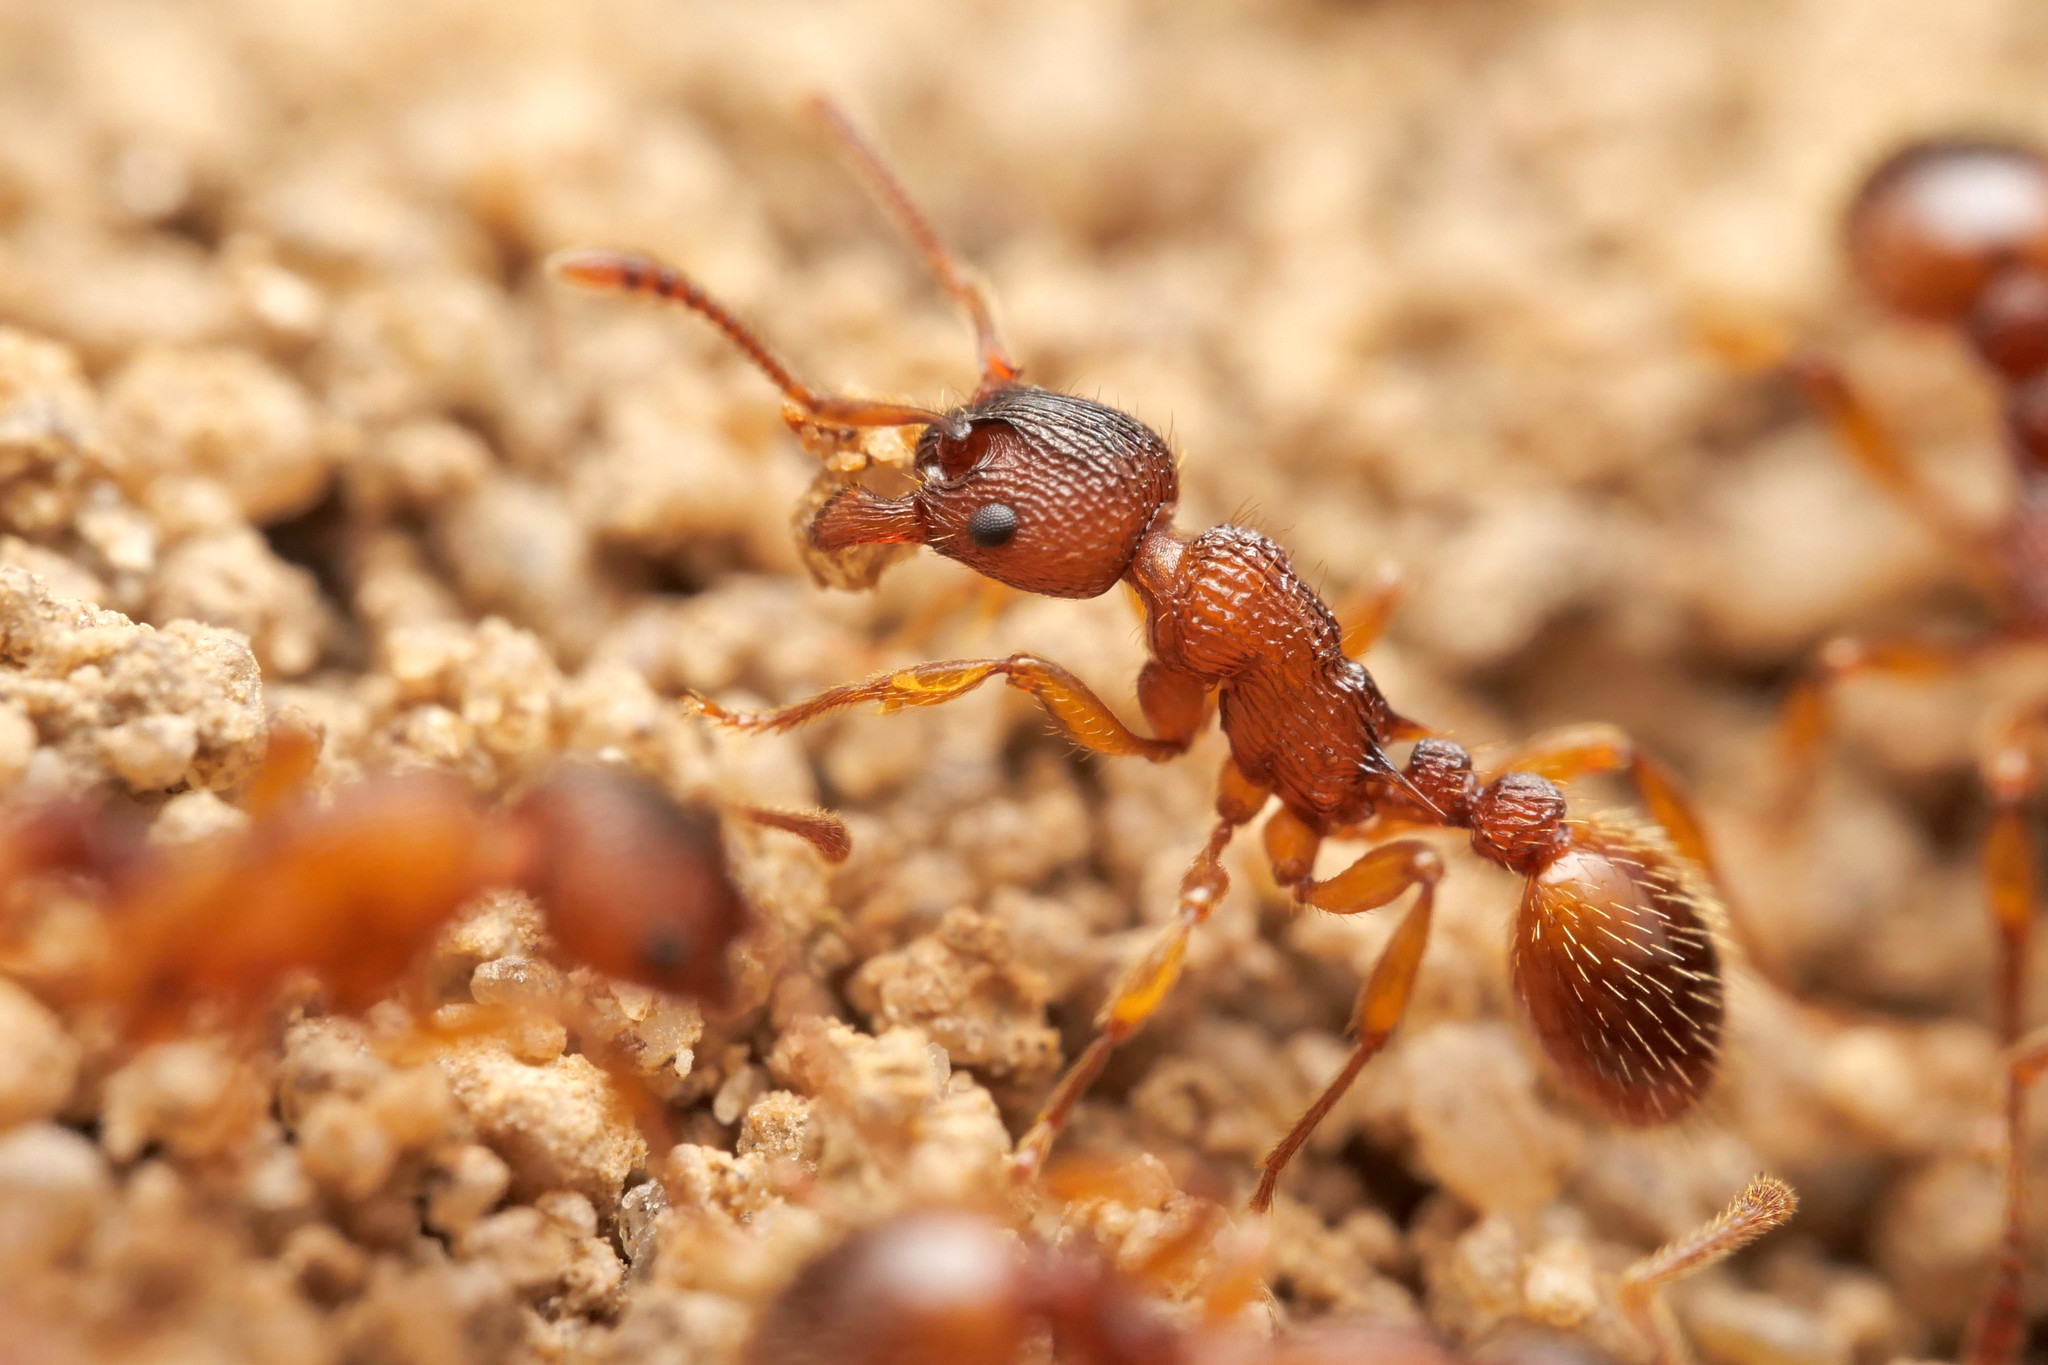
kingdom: Animalia
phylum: Arthropoda
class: Insecta
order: Hymenoptera
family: Formicidae
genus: Myrmica
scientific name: Myrmica sabuleti
